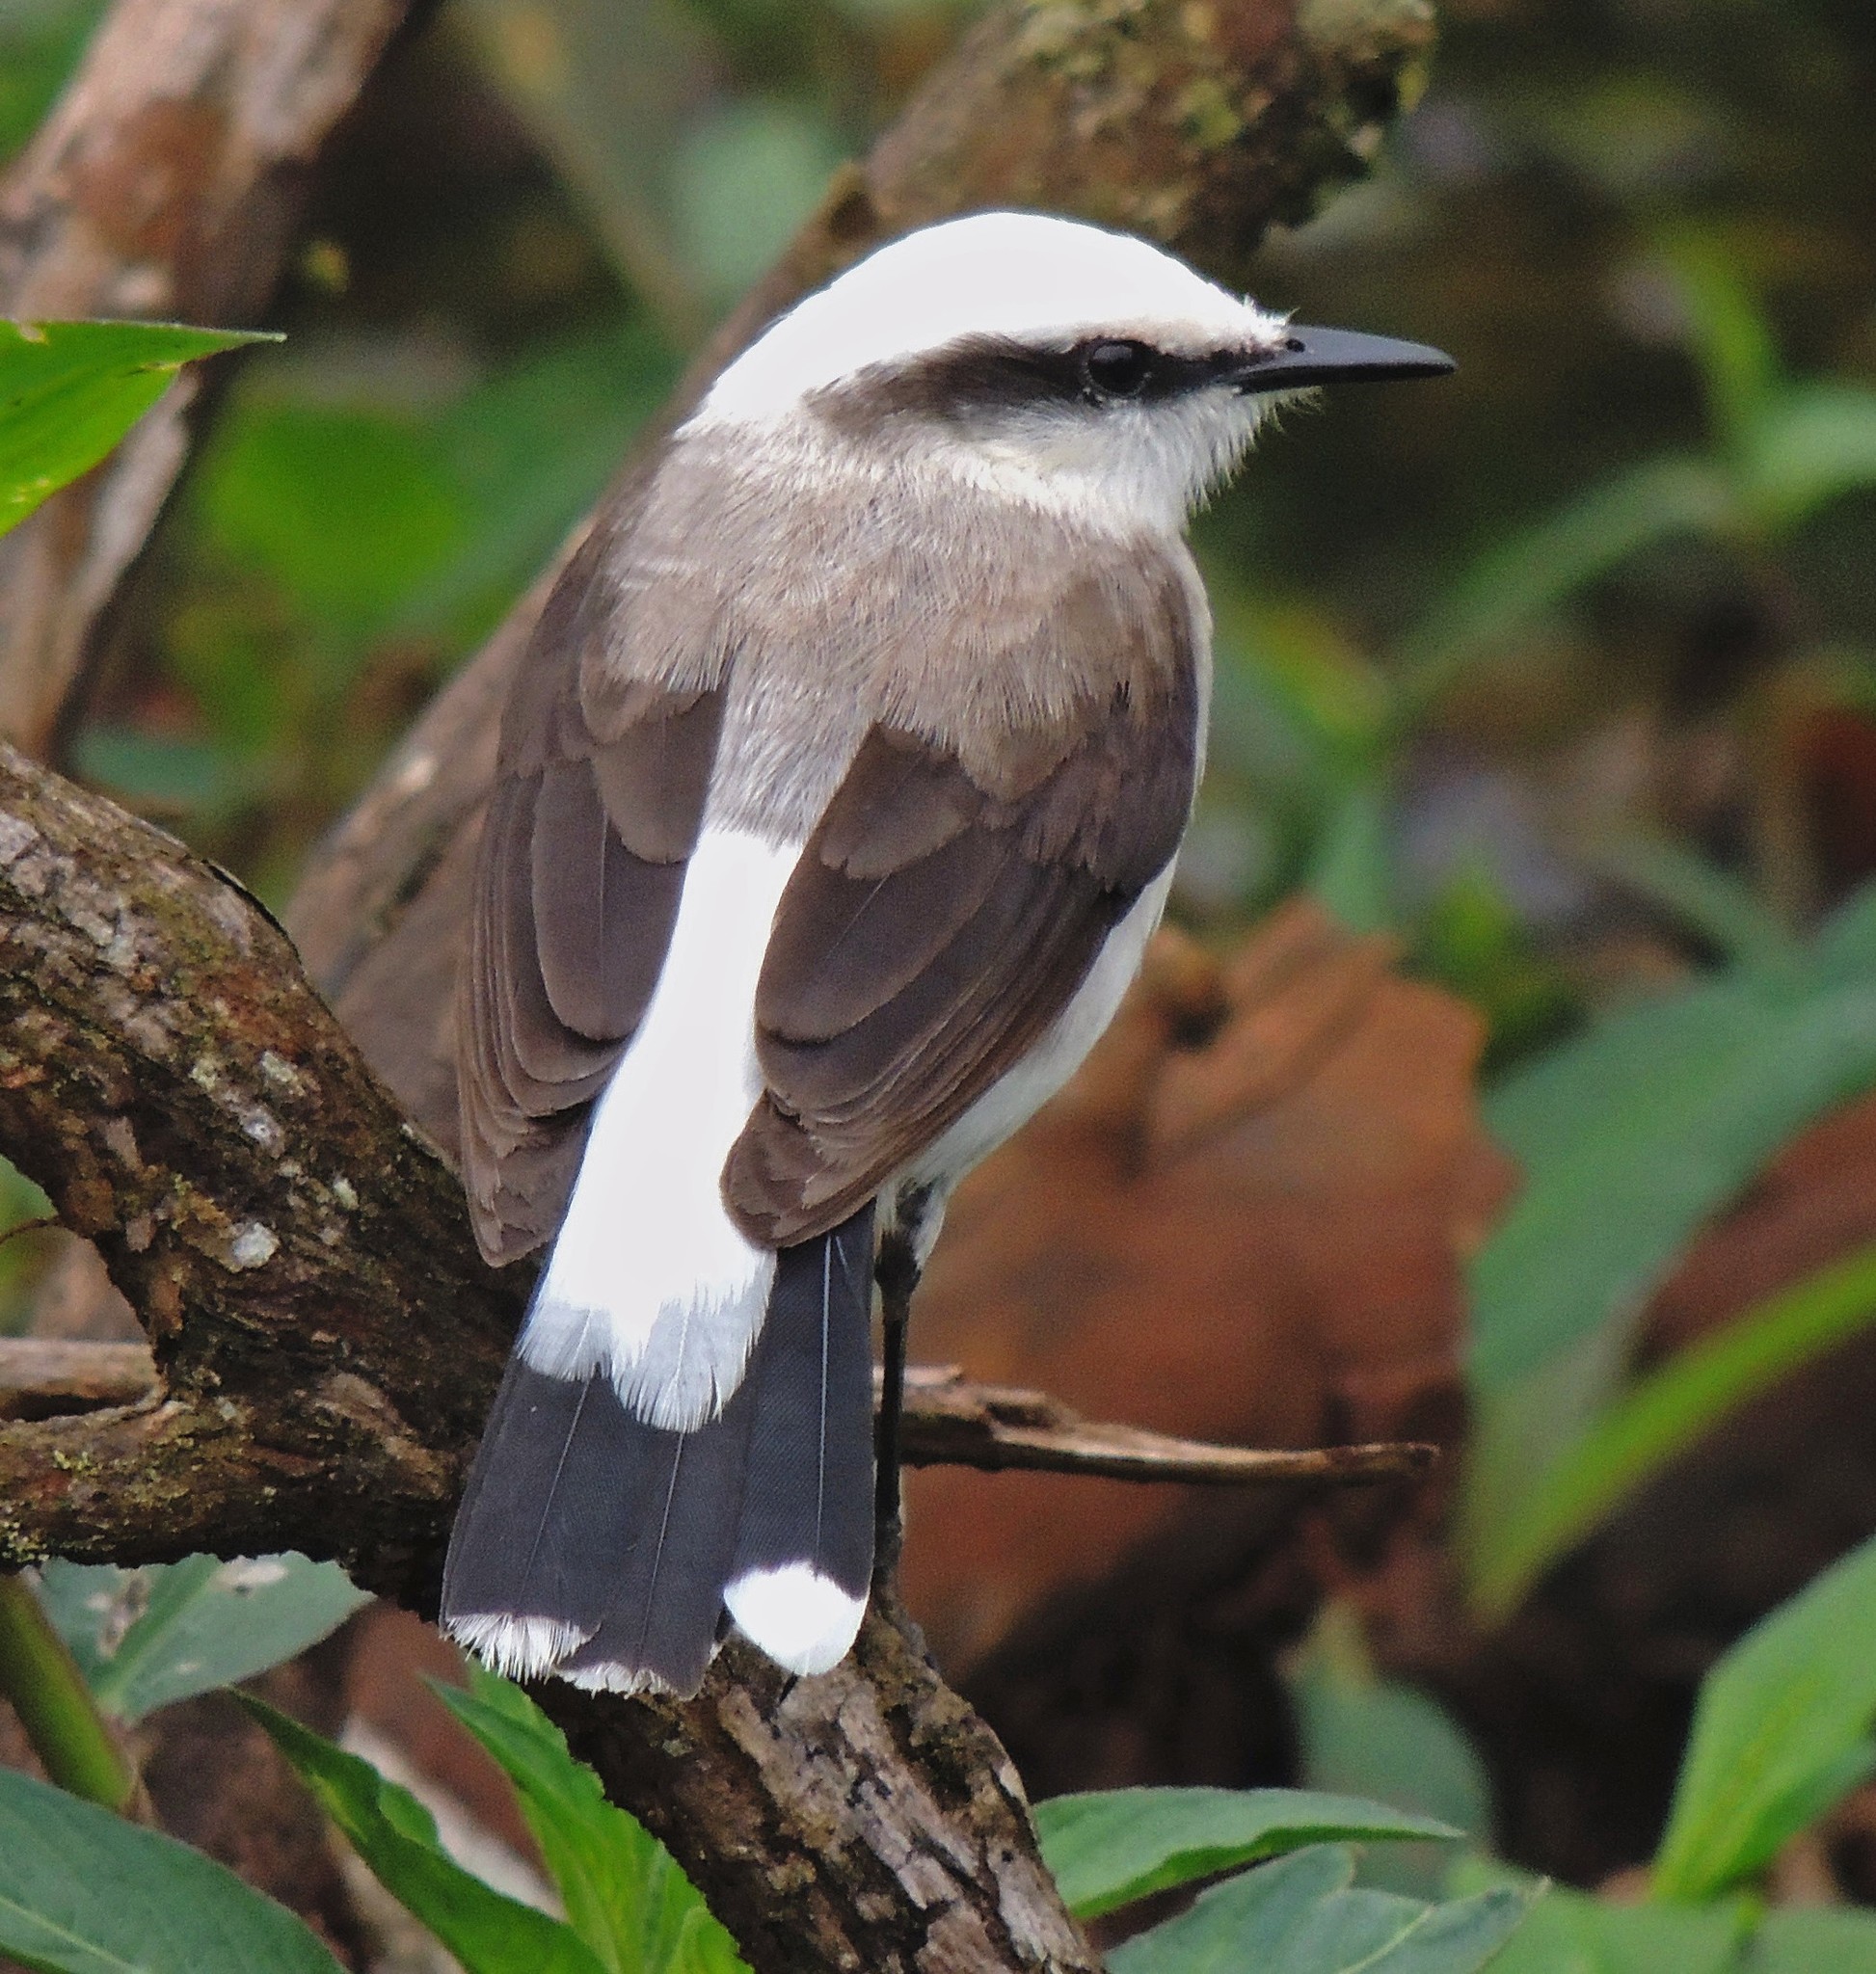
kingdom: Animalia
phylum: Chordata
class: Aves
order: Passeriformes
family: Tyrannidae
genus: Fluvicola
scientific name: Fluvicola nengeta
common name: Masked water tyrant
